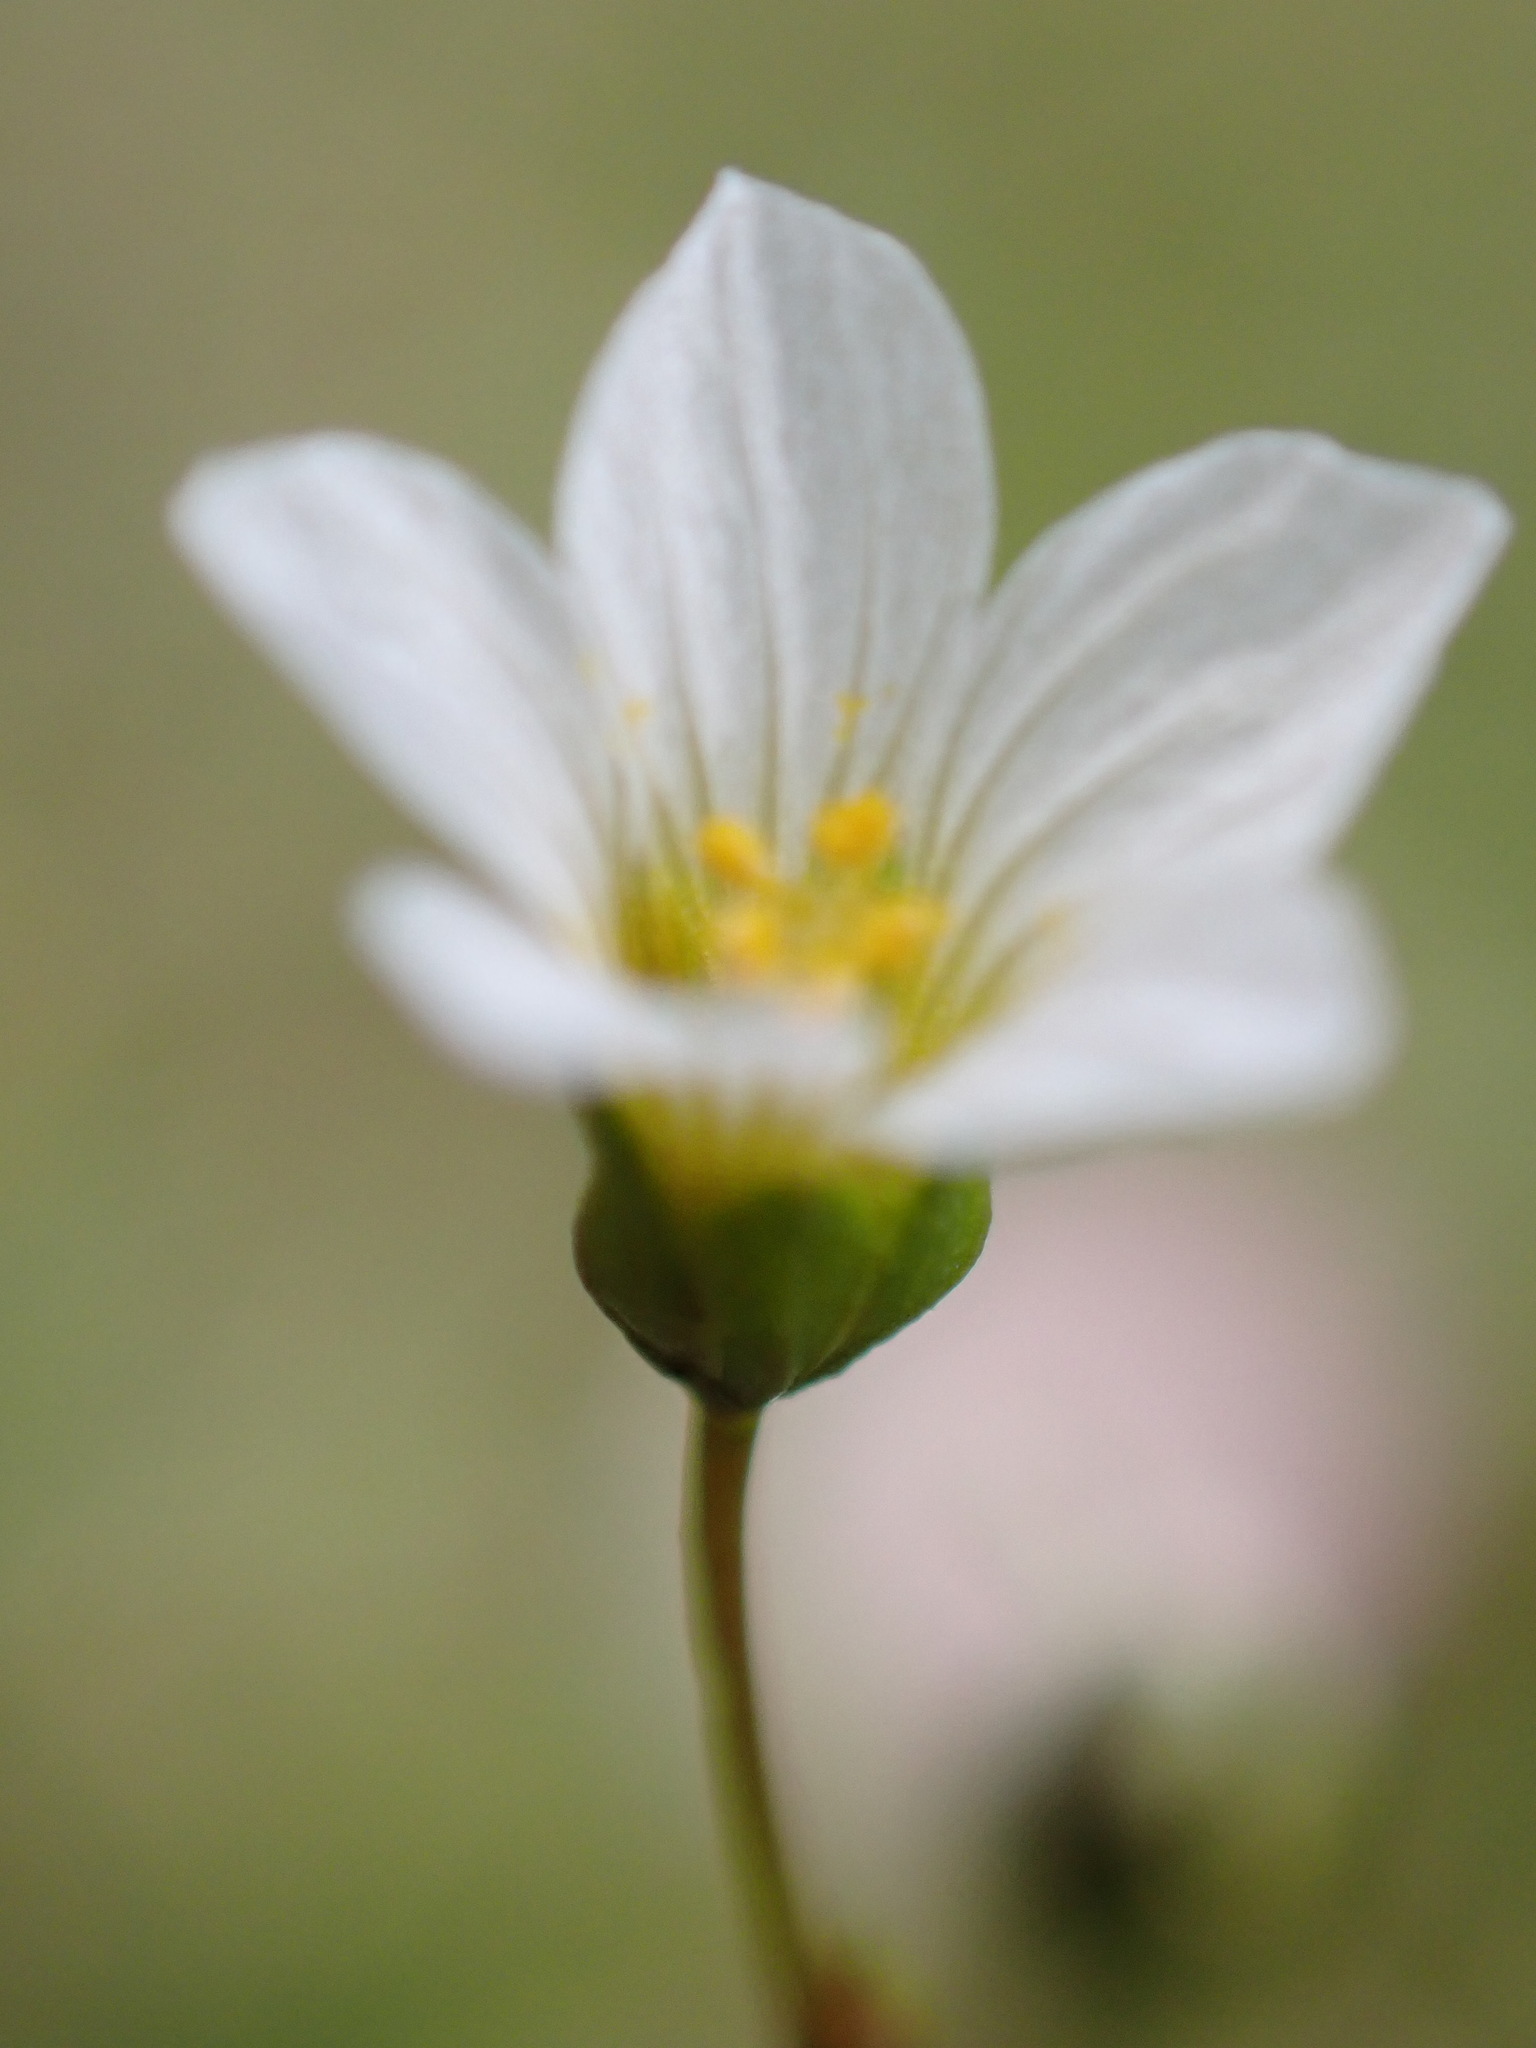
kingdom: Plantae
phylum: Tracheophyta
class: Magnoliopsida
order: Malpighiales
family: Linaceae
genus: Linum
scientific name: Linum catharticum
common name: Fairy flax
